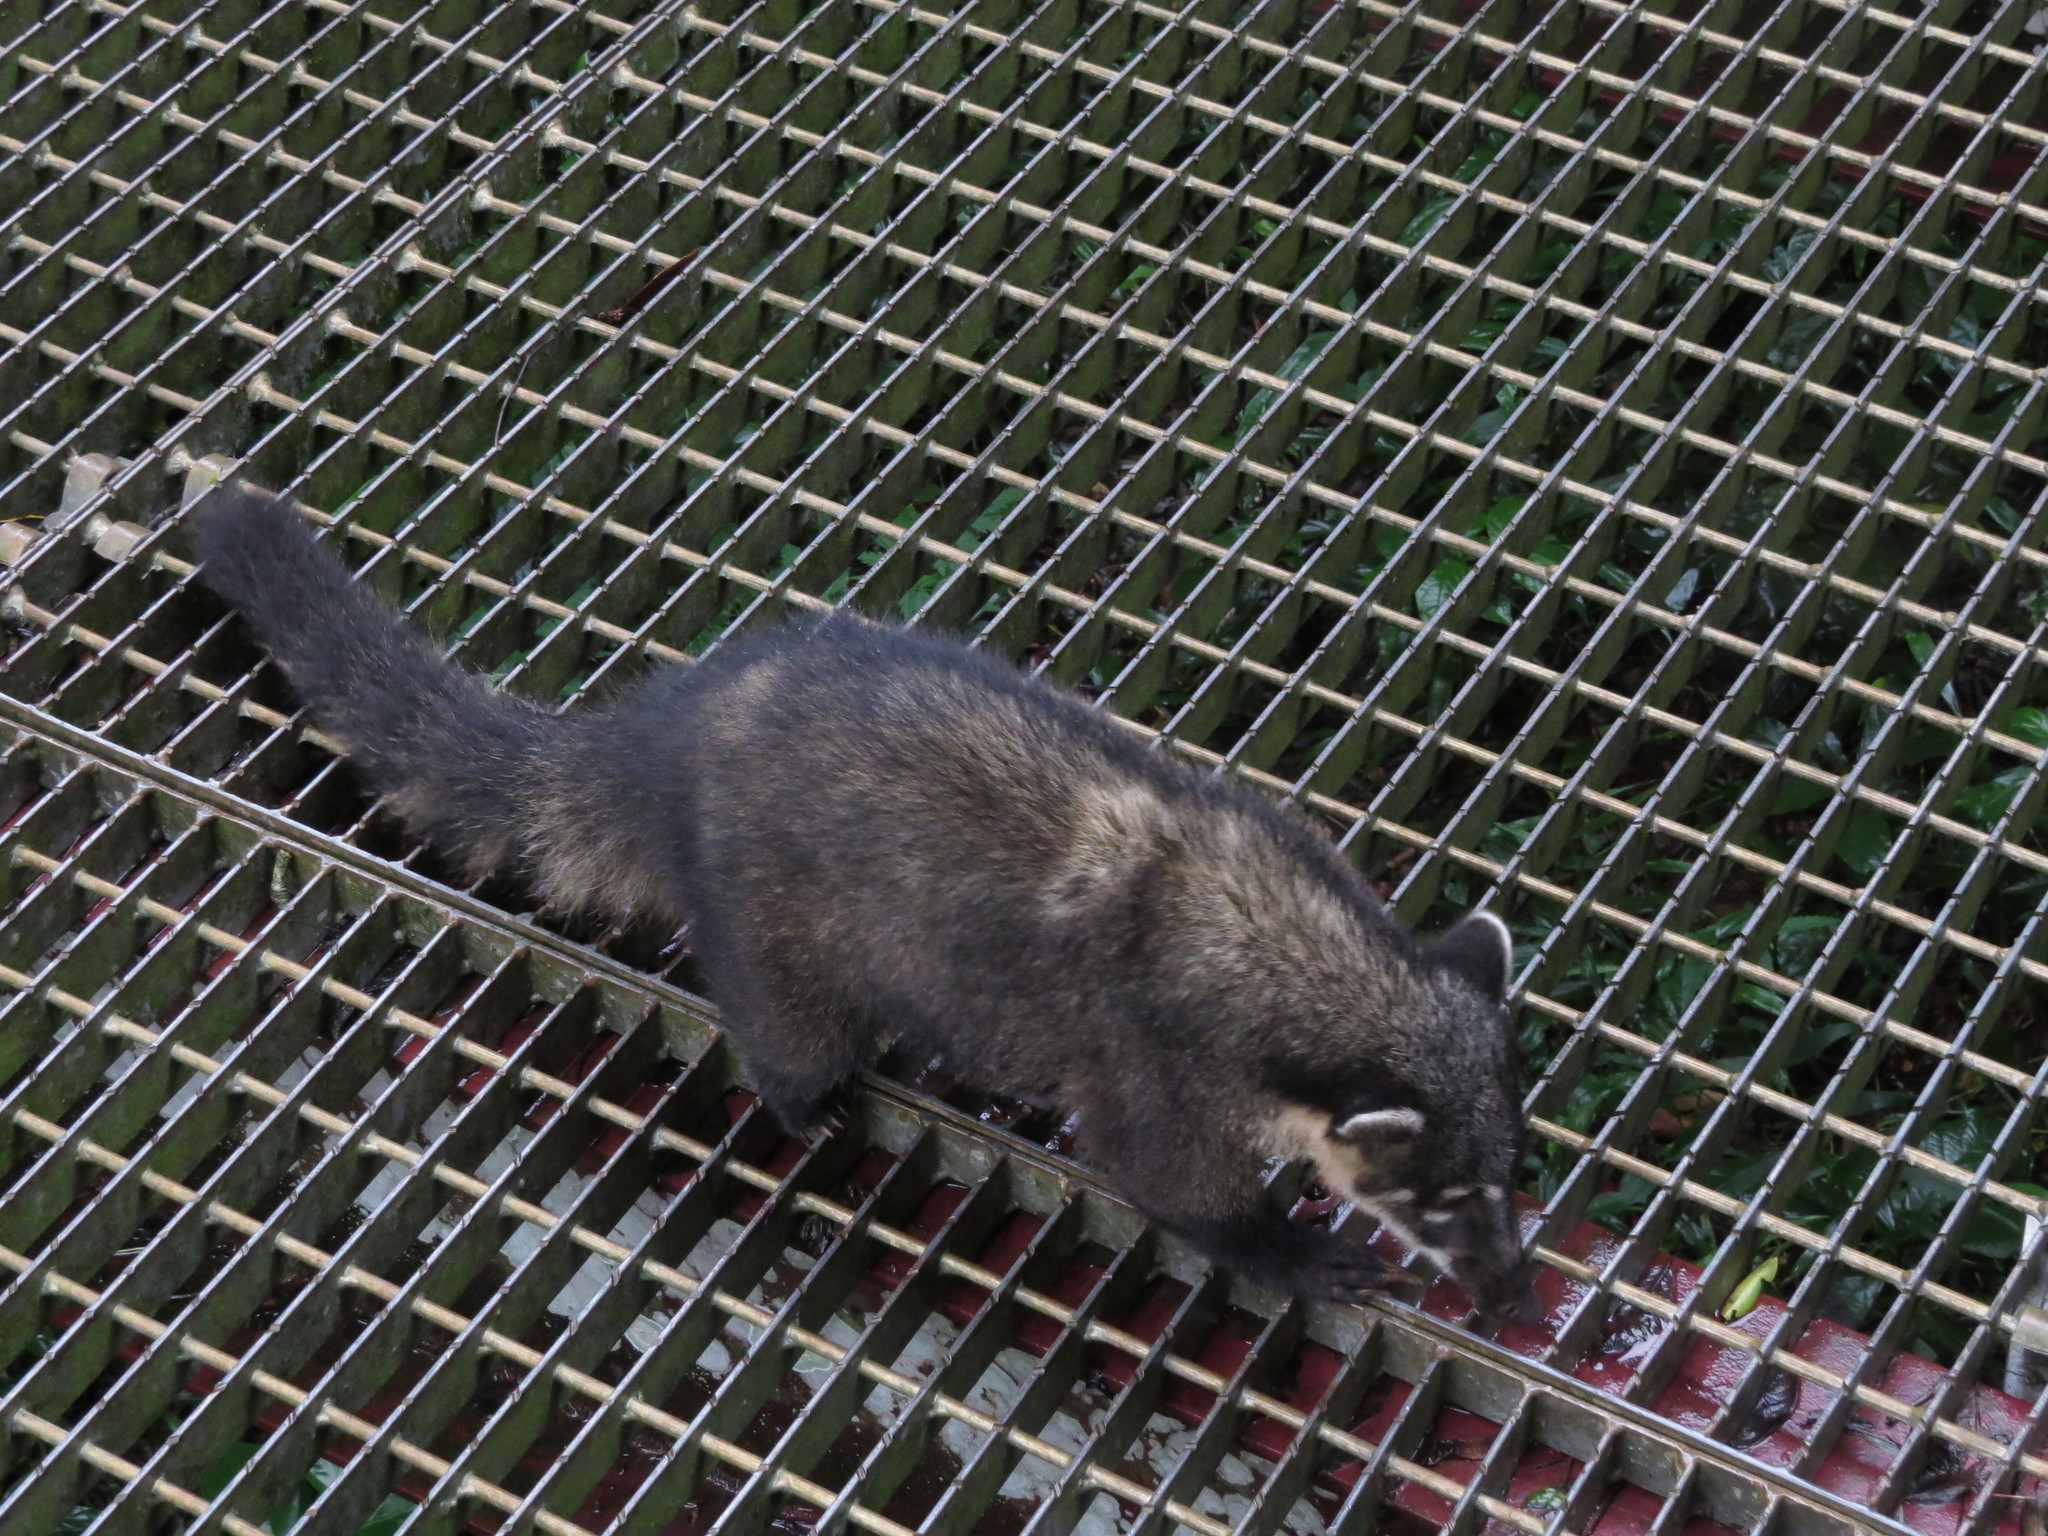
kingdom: Animalia
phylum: Chordata
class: Mammalia
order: Carnivora
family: Procyonidae
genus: Nasua
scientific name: Nasua nasua
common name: South american coati
